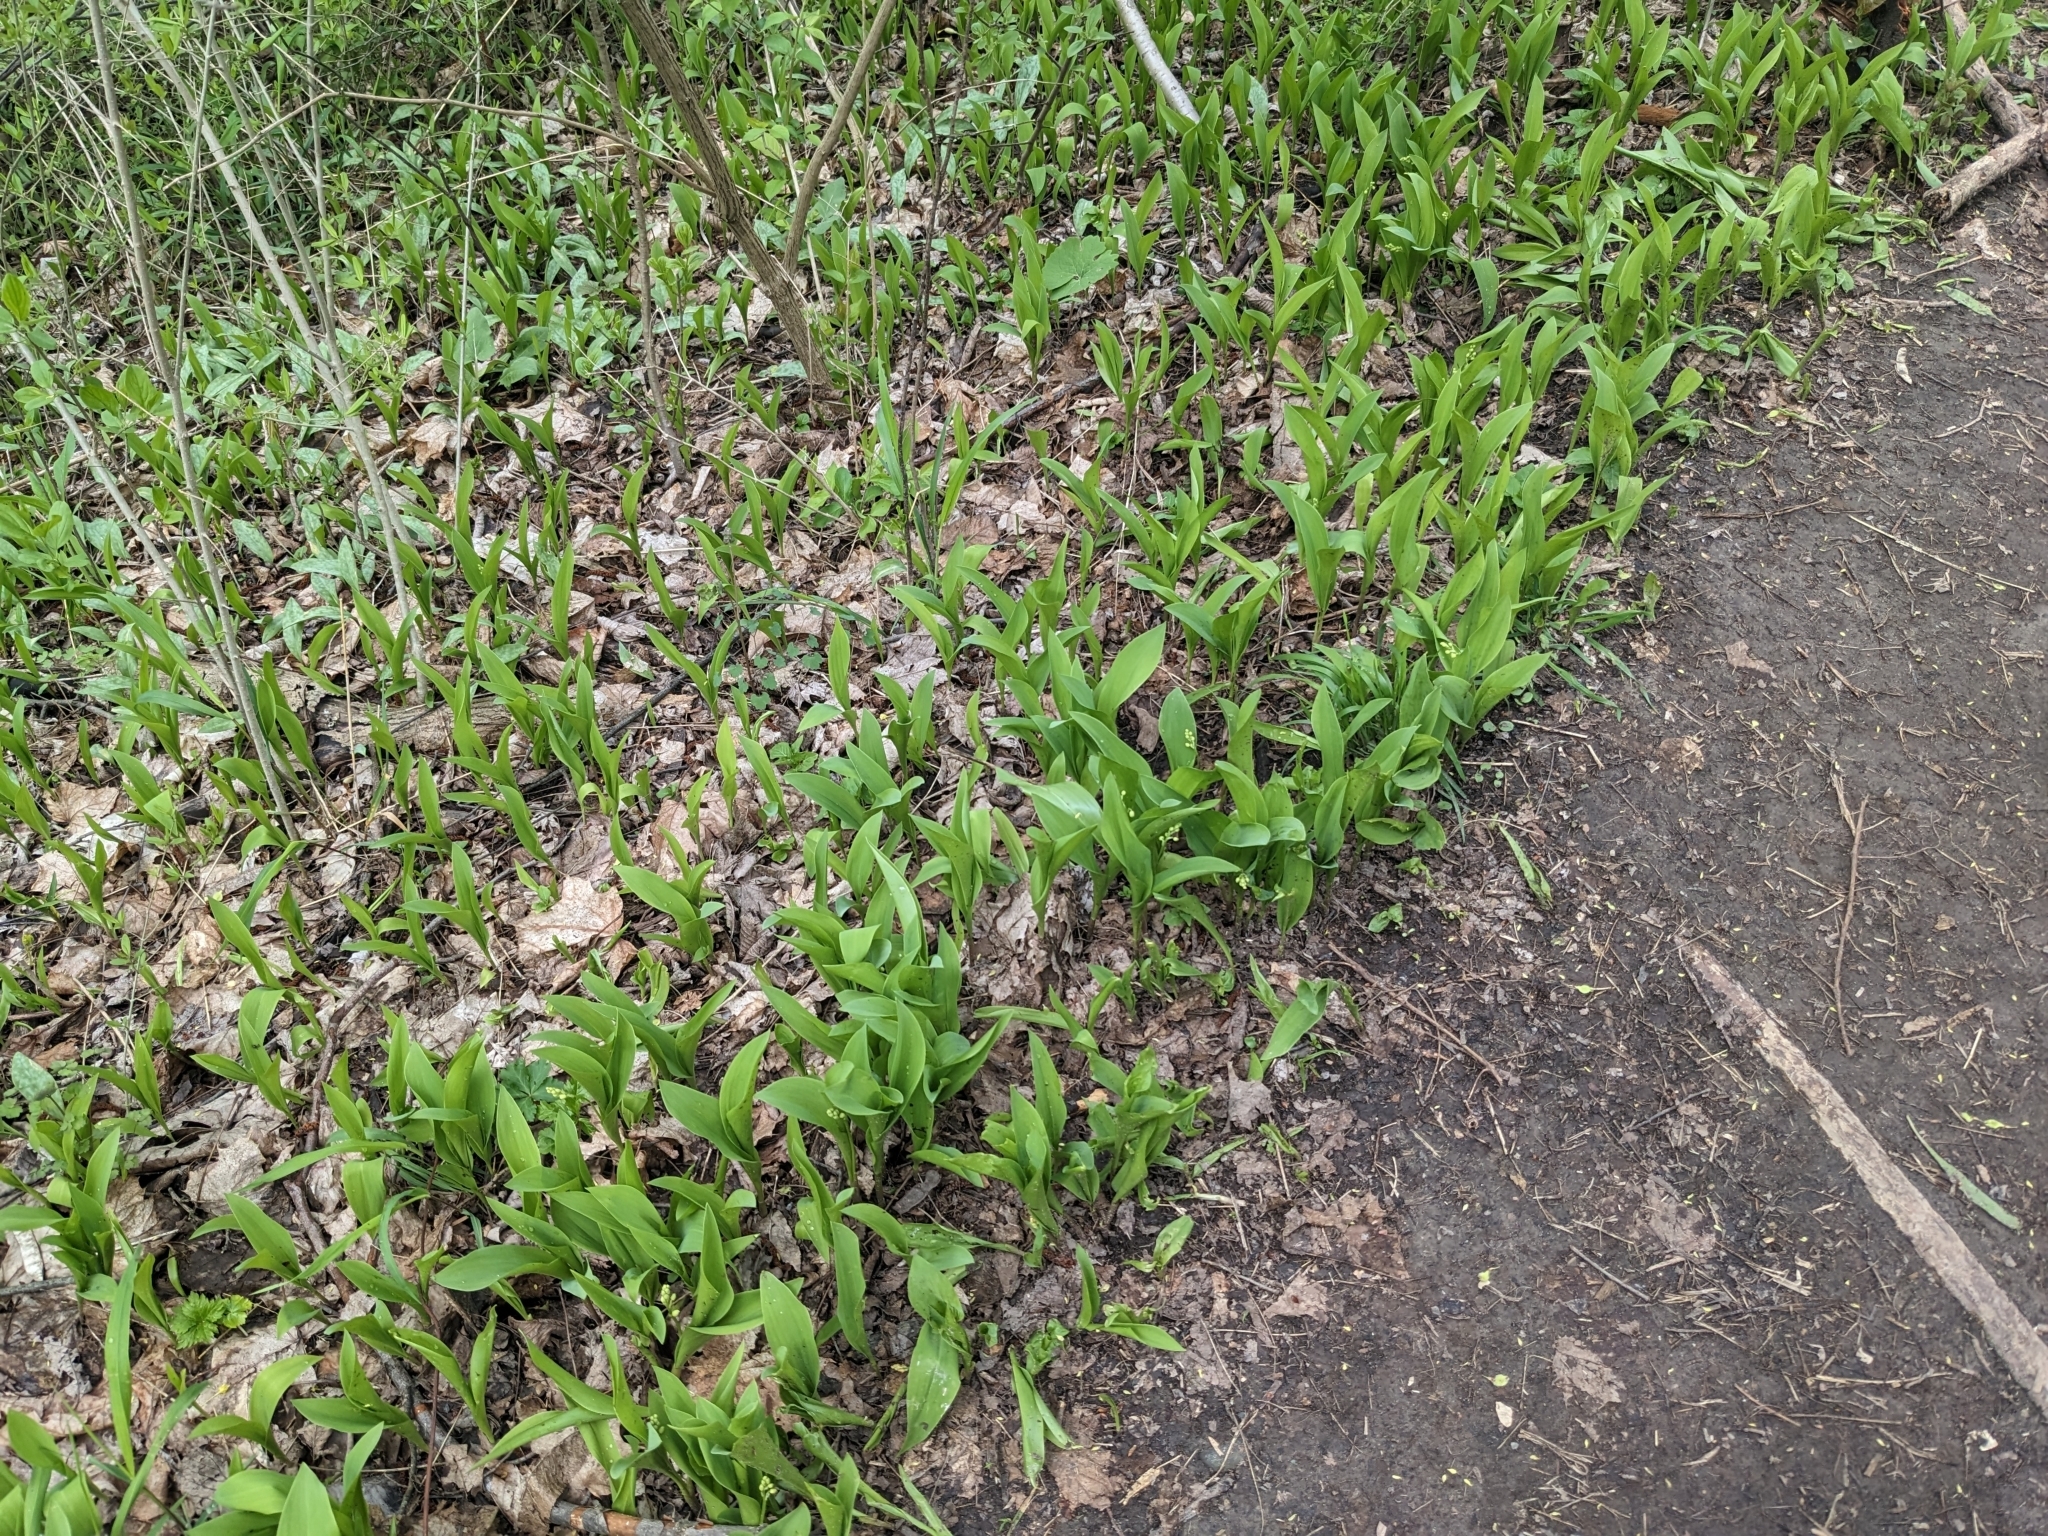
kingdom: Plantae
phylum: Tracheophyta
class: Liliopsida
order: Asparagales
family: Asparagaceae
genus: Convallaria
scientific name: Convallaria majalis
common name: Lily-of-the-valley
